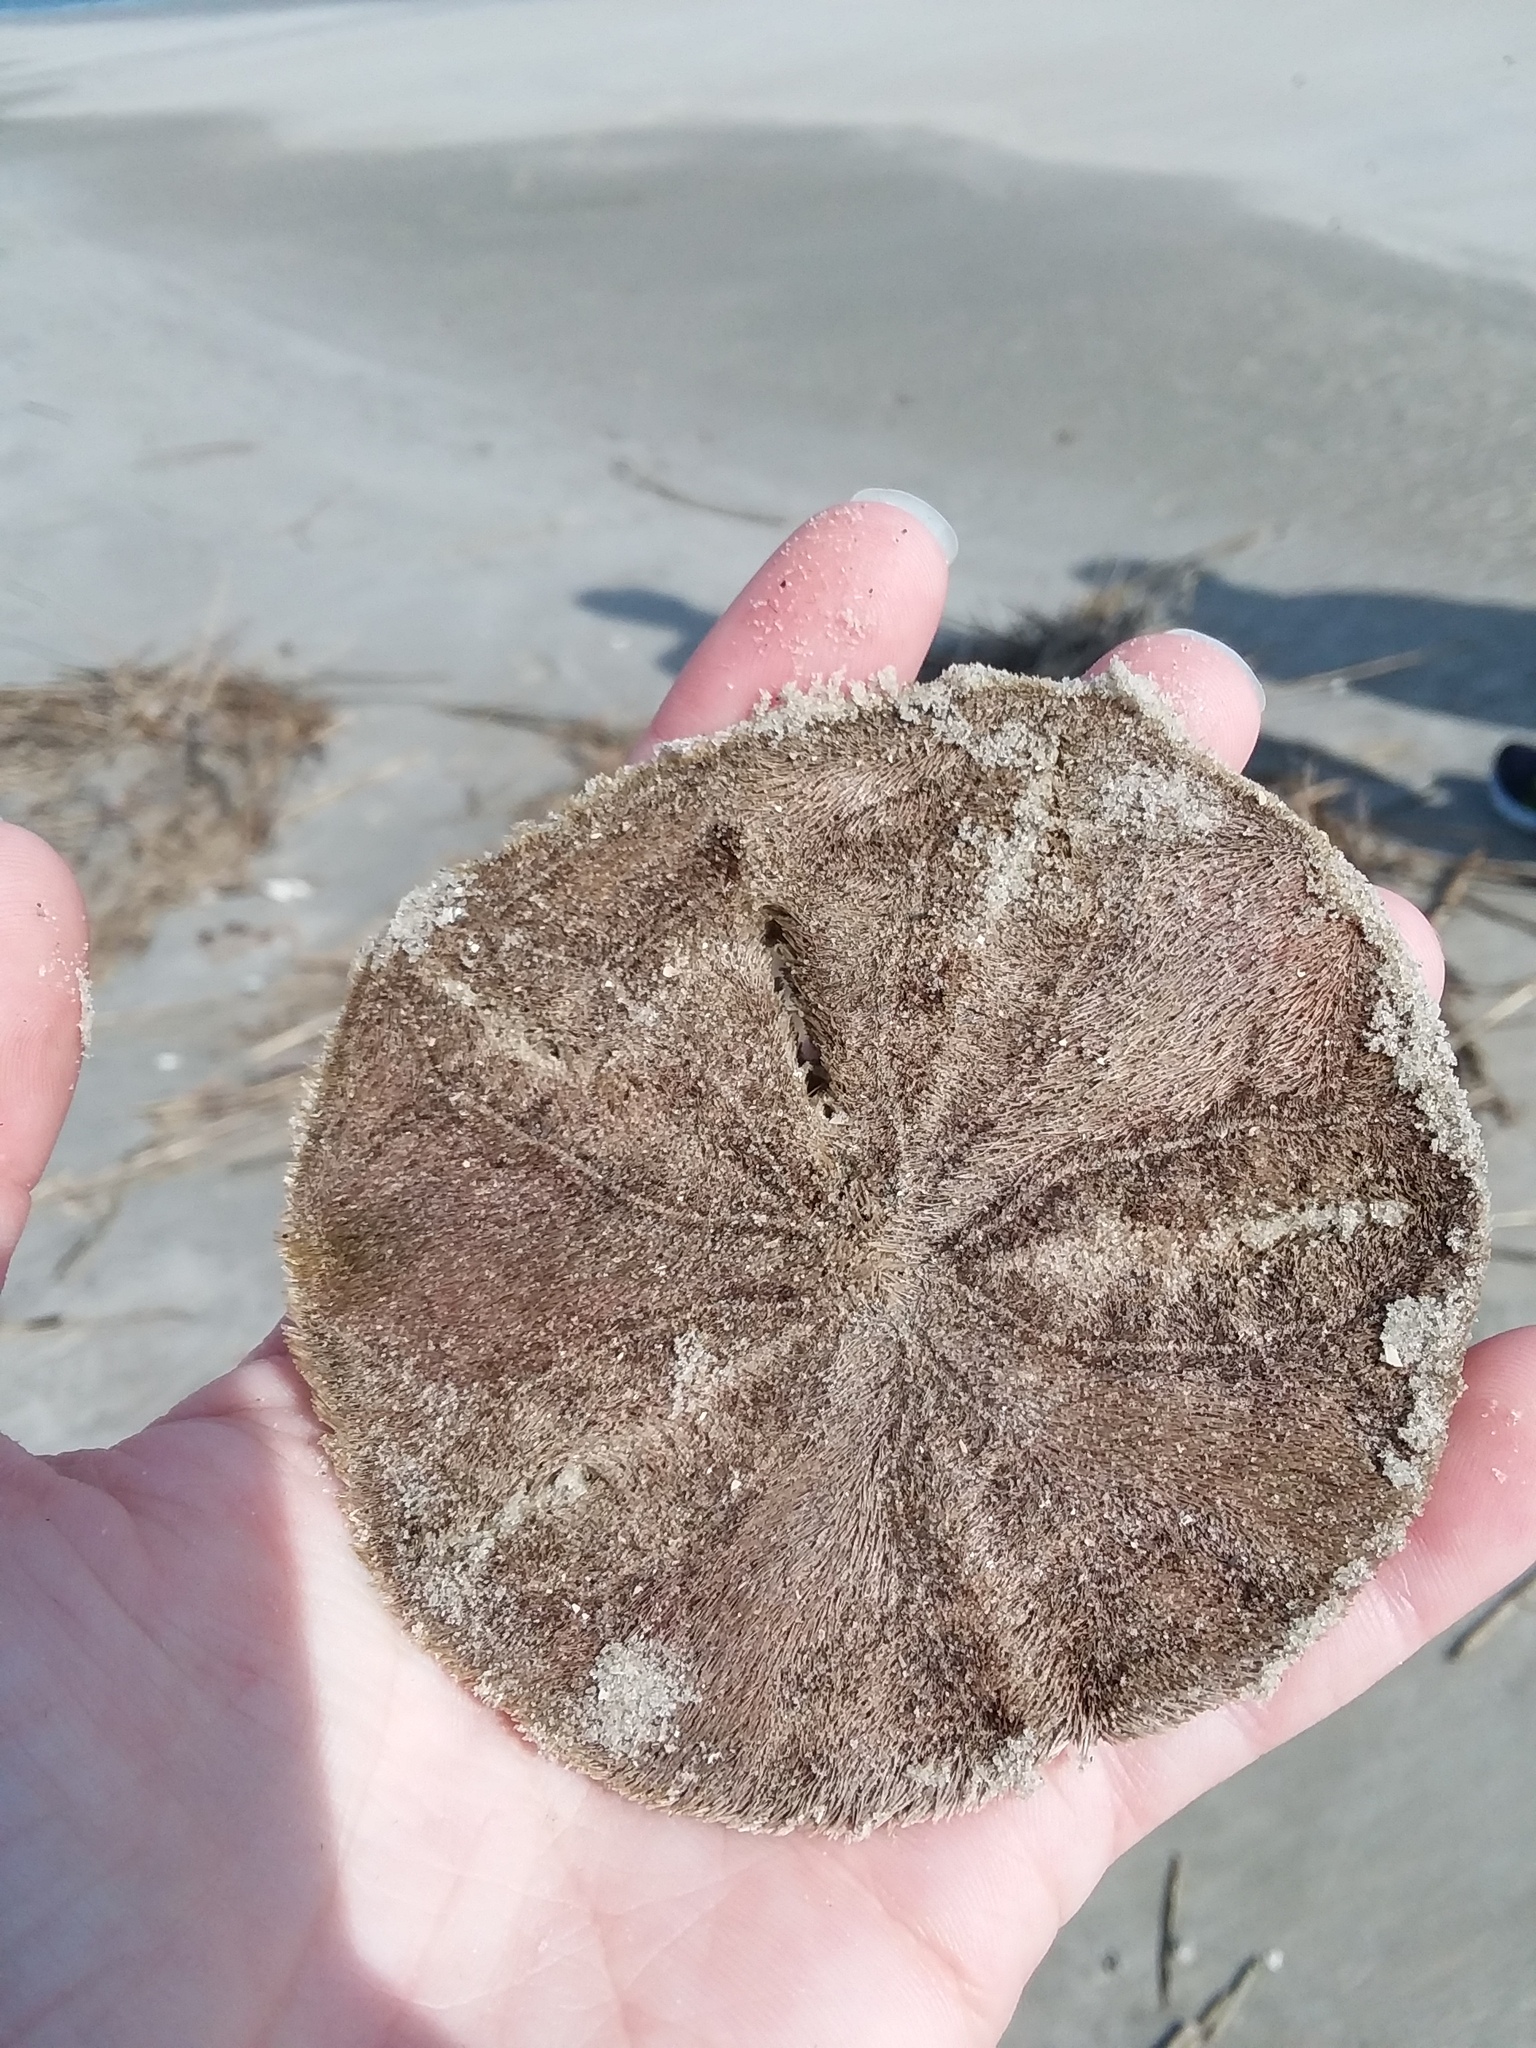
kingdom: Animalia
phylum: Echinodermata
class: Echinoidea
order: Echinolampadacea
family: Mellitidae
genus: Mellita
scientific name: Mellita isometra
